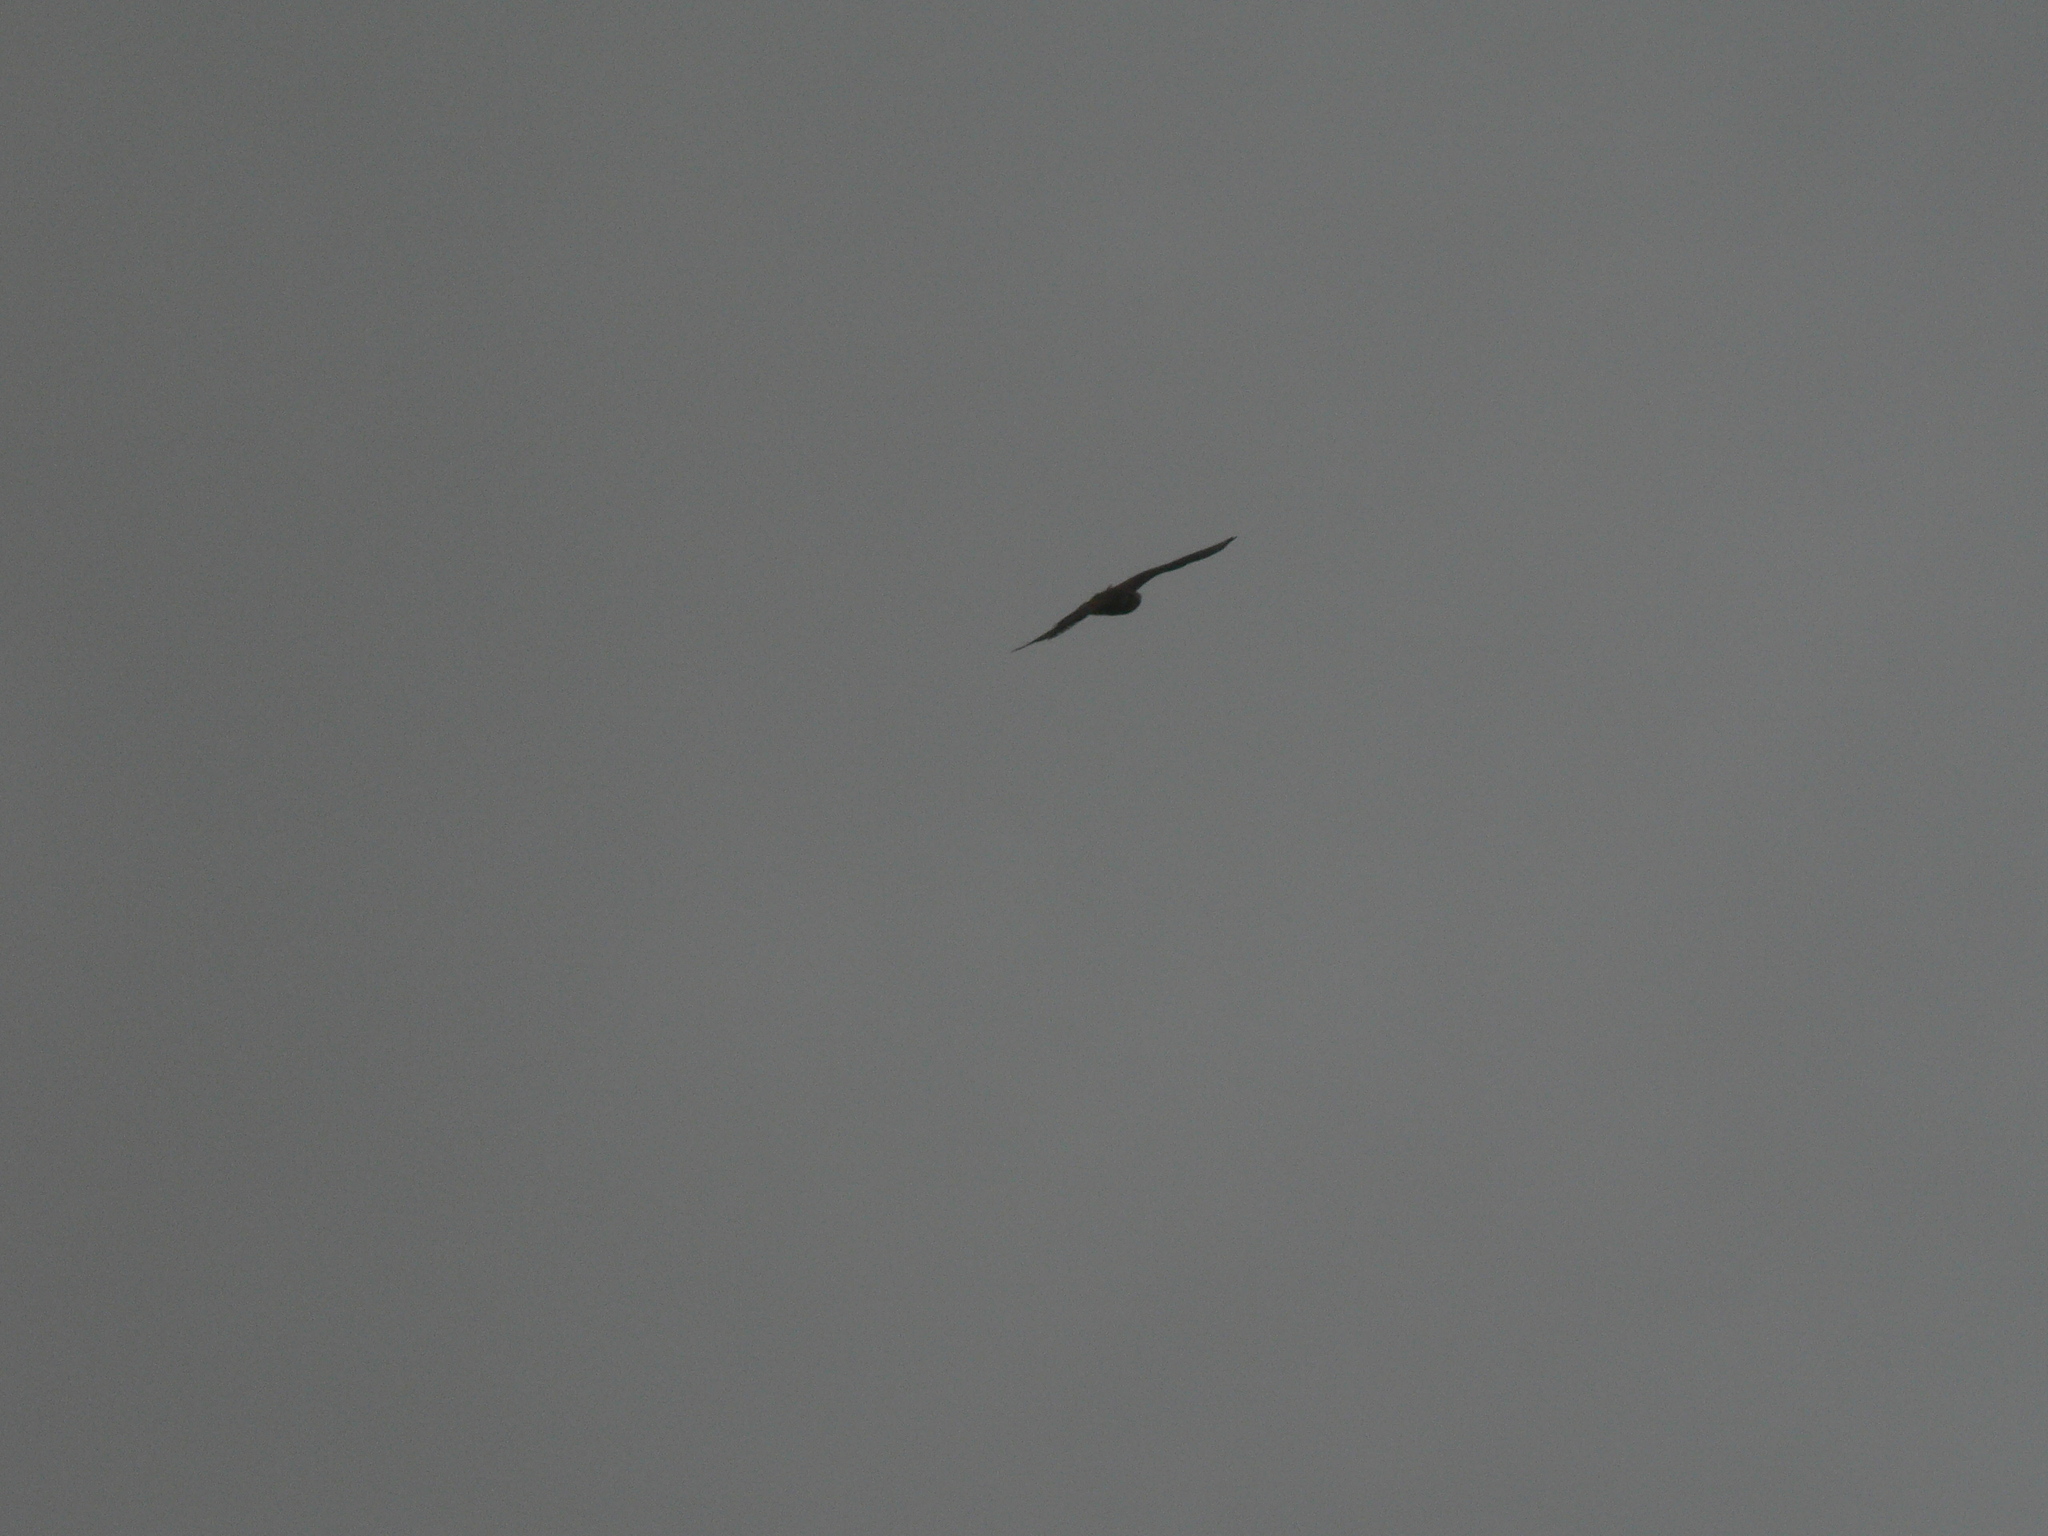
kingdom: Animalia
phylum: Chordata
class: Aves
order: Falconiformes
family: Falconidae
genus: Falco
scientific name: Falco tinnunculus
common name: Common kestrel
